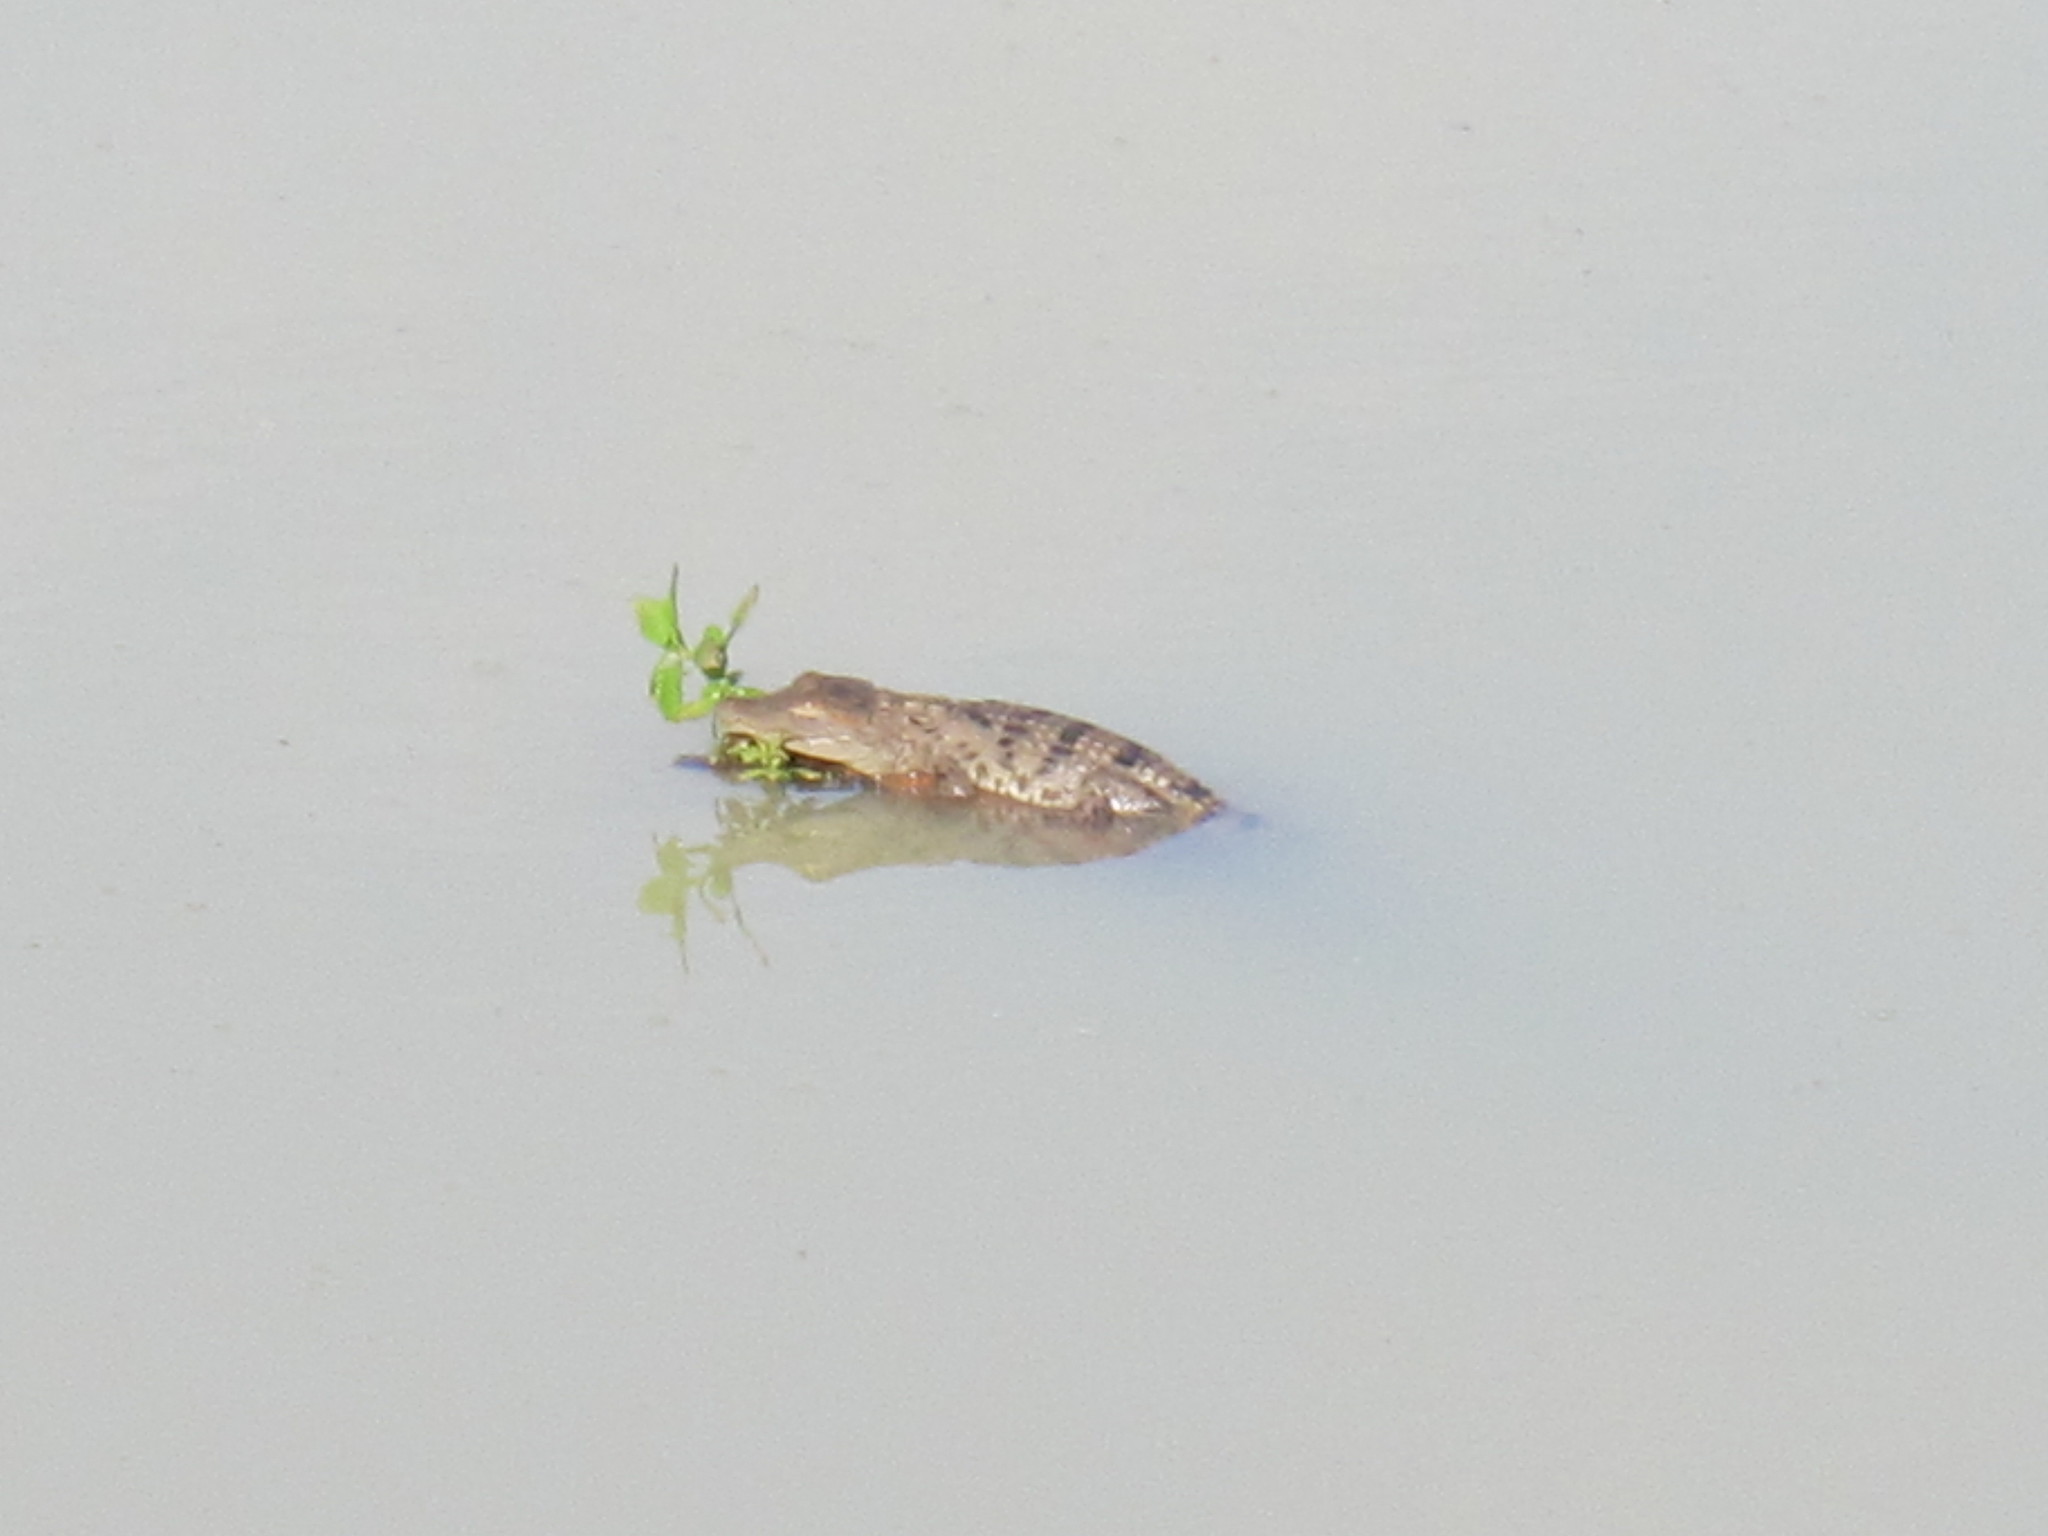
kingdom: Animalia
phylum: Chordata
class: Crocodylia
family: Crocodylidae
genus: Crocodylus
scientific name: Crocodylus palustris
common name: Mugger crocodile
